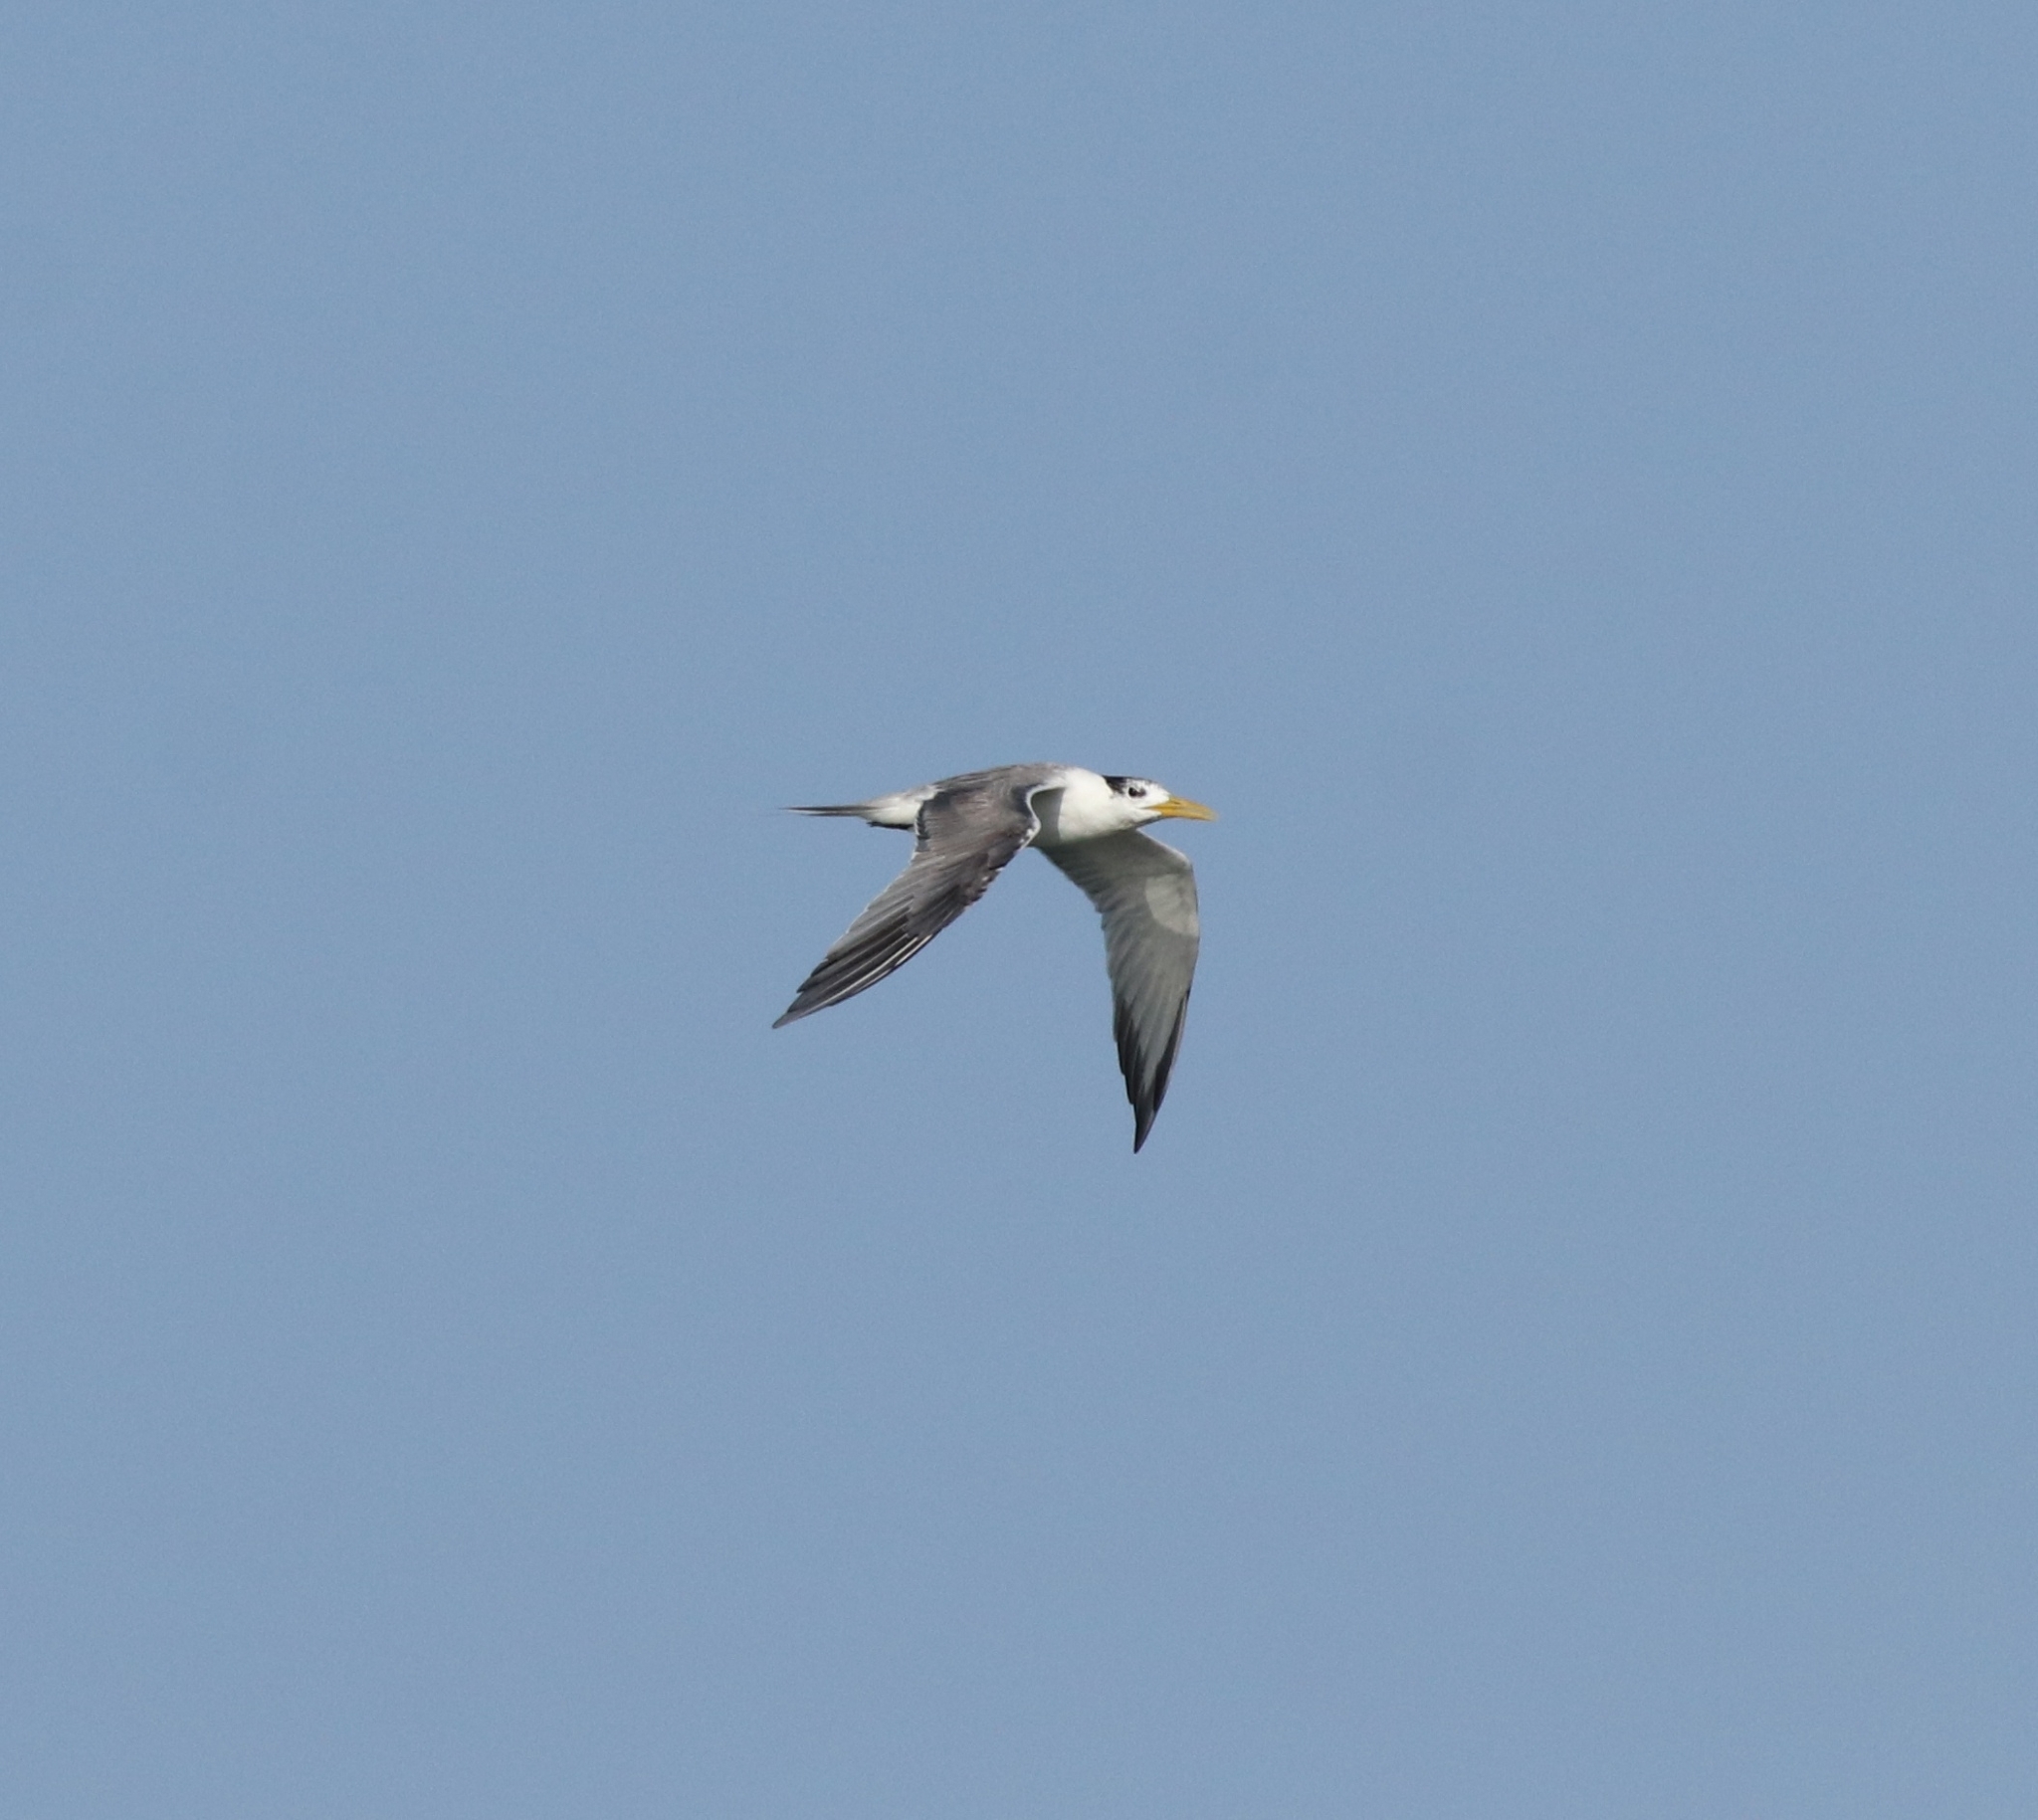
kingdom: Animalia
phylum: Chordata
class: Aves
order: Charadriiformes
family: Laridae
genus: Thalasseus
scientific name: Thalasseus bergii
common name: Greater crested tern
